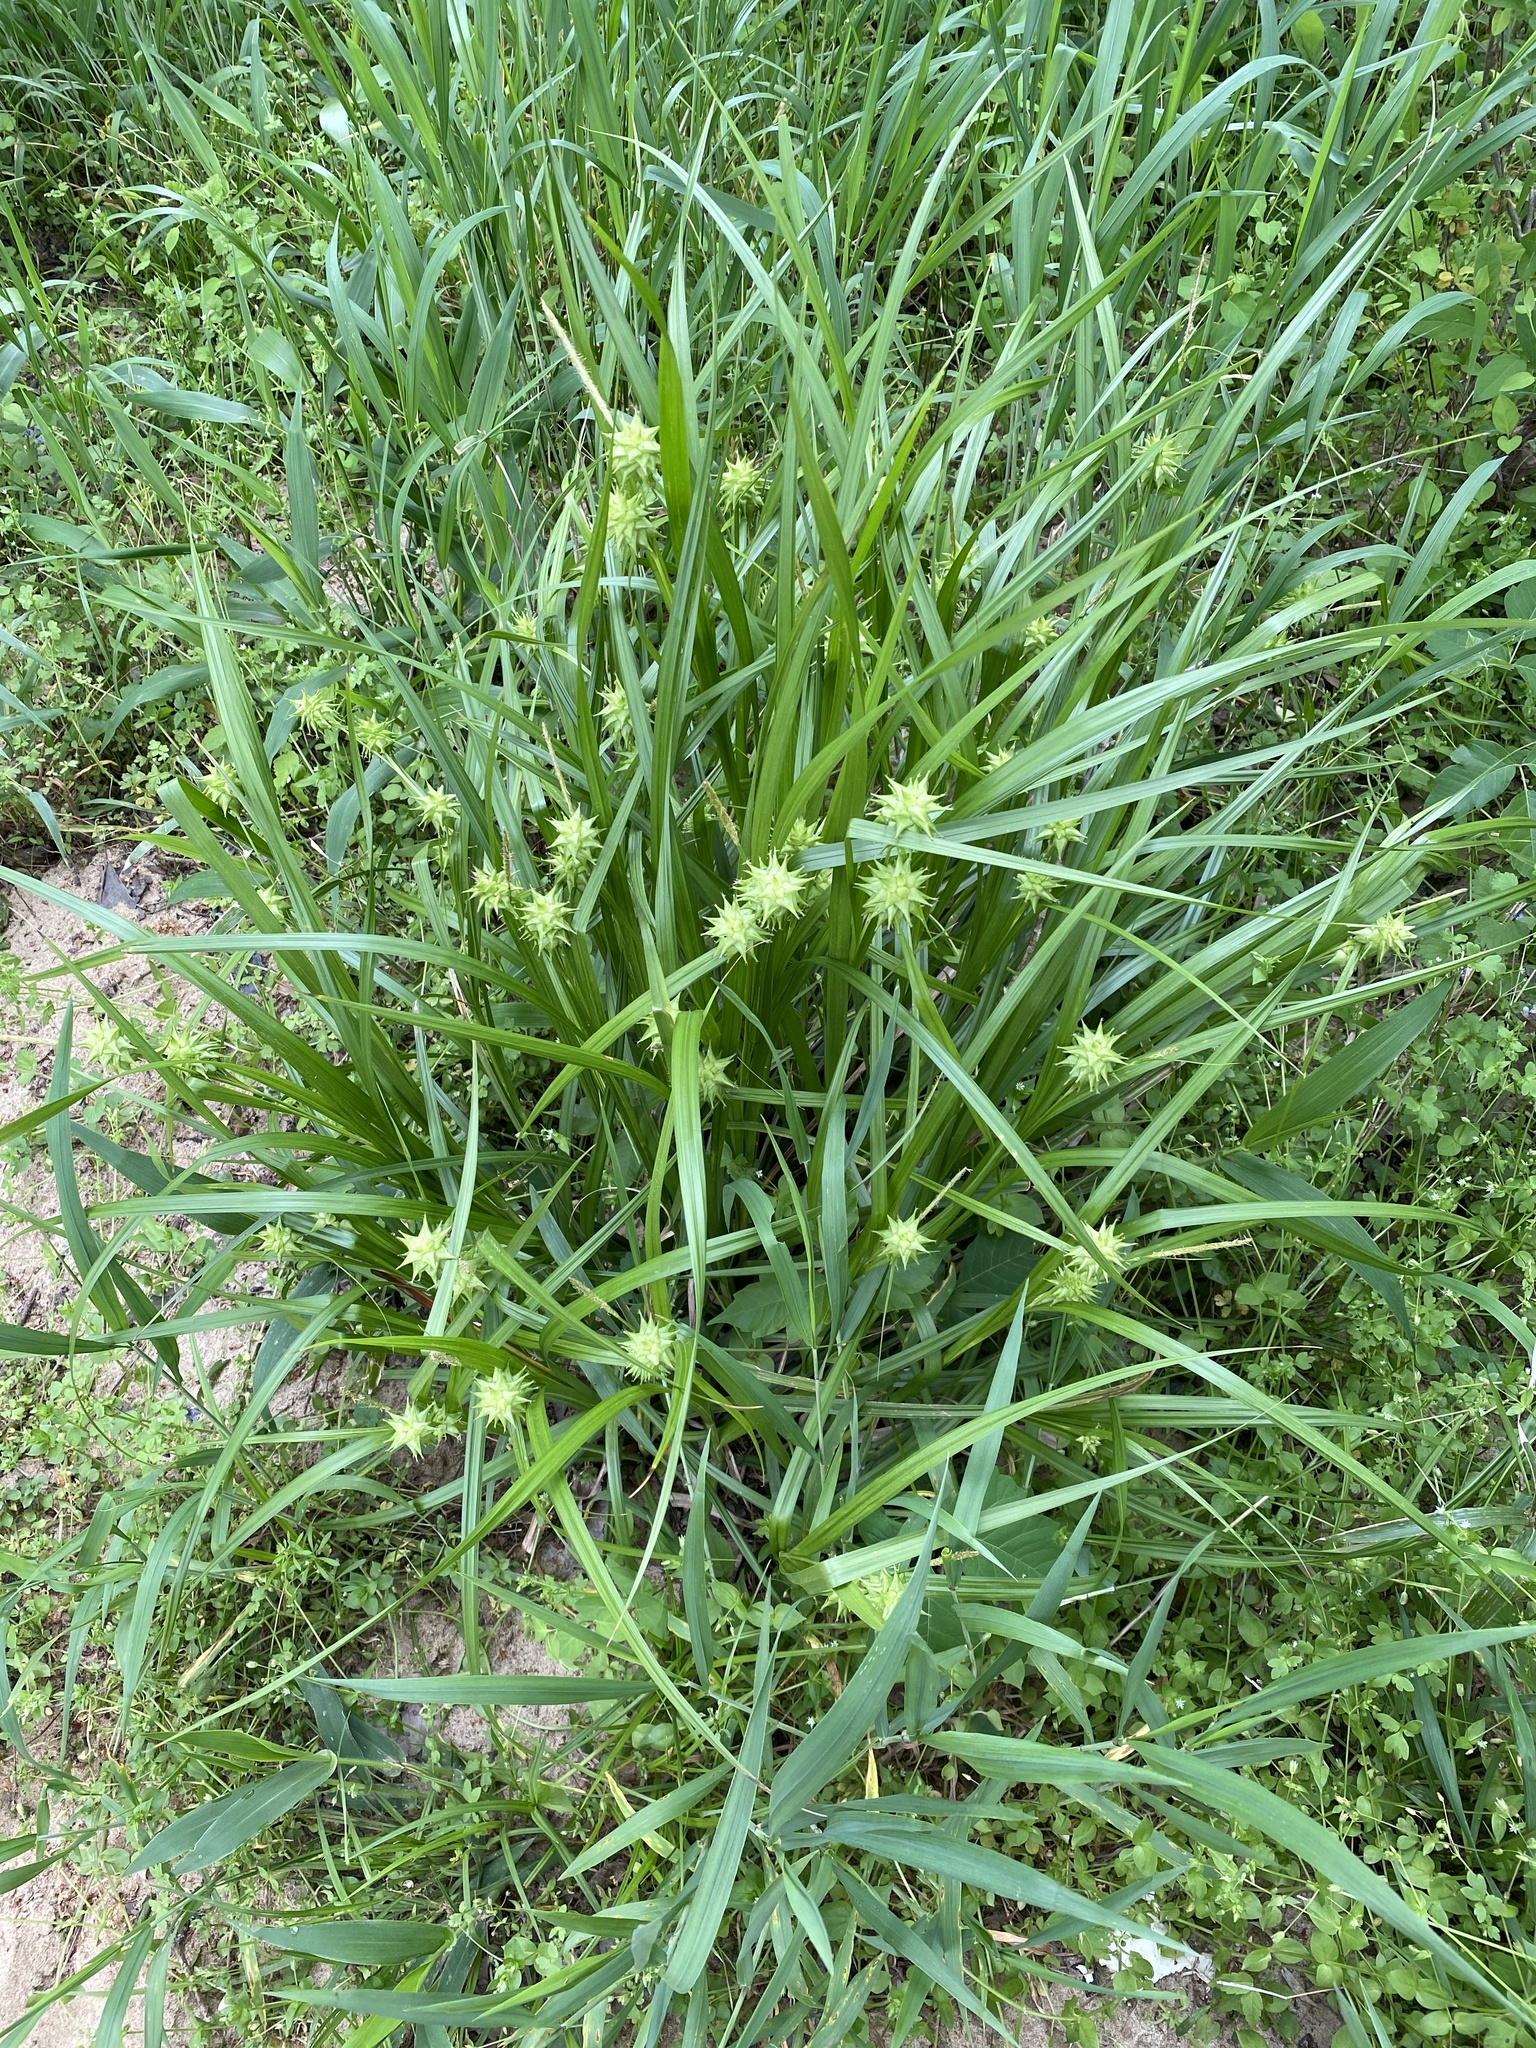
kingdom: Plantae
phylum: Tracheophyta
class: Liliopsida
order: Poales
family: Cyperaceae
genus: Carex
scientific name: Carex grayi
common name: Asa gray's sedge
